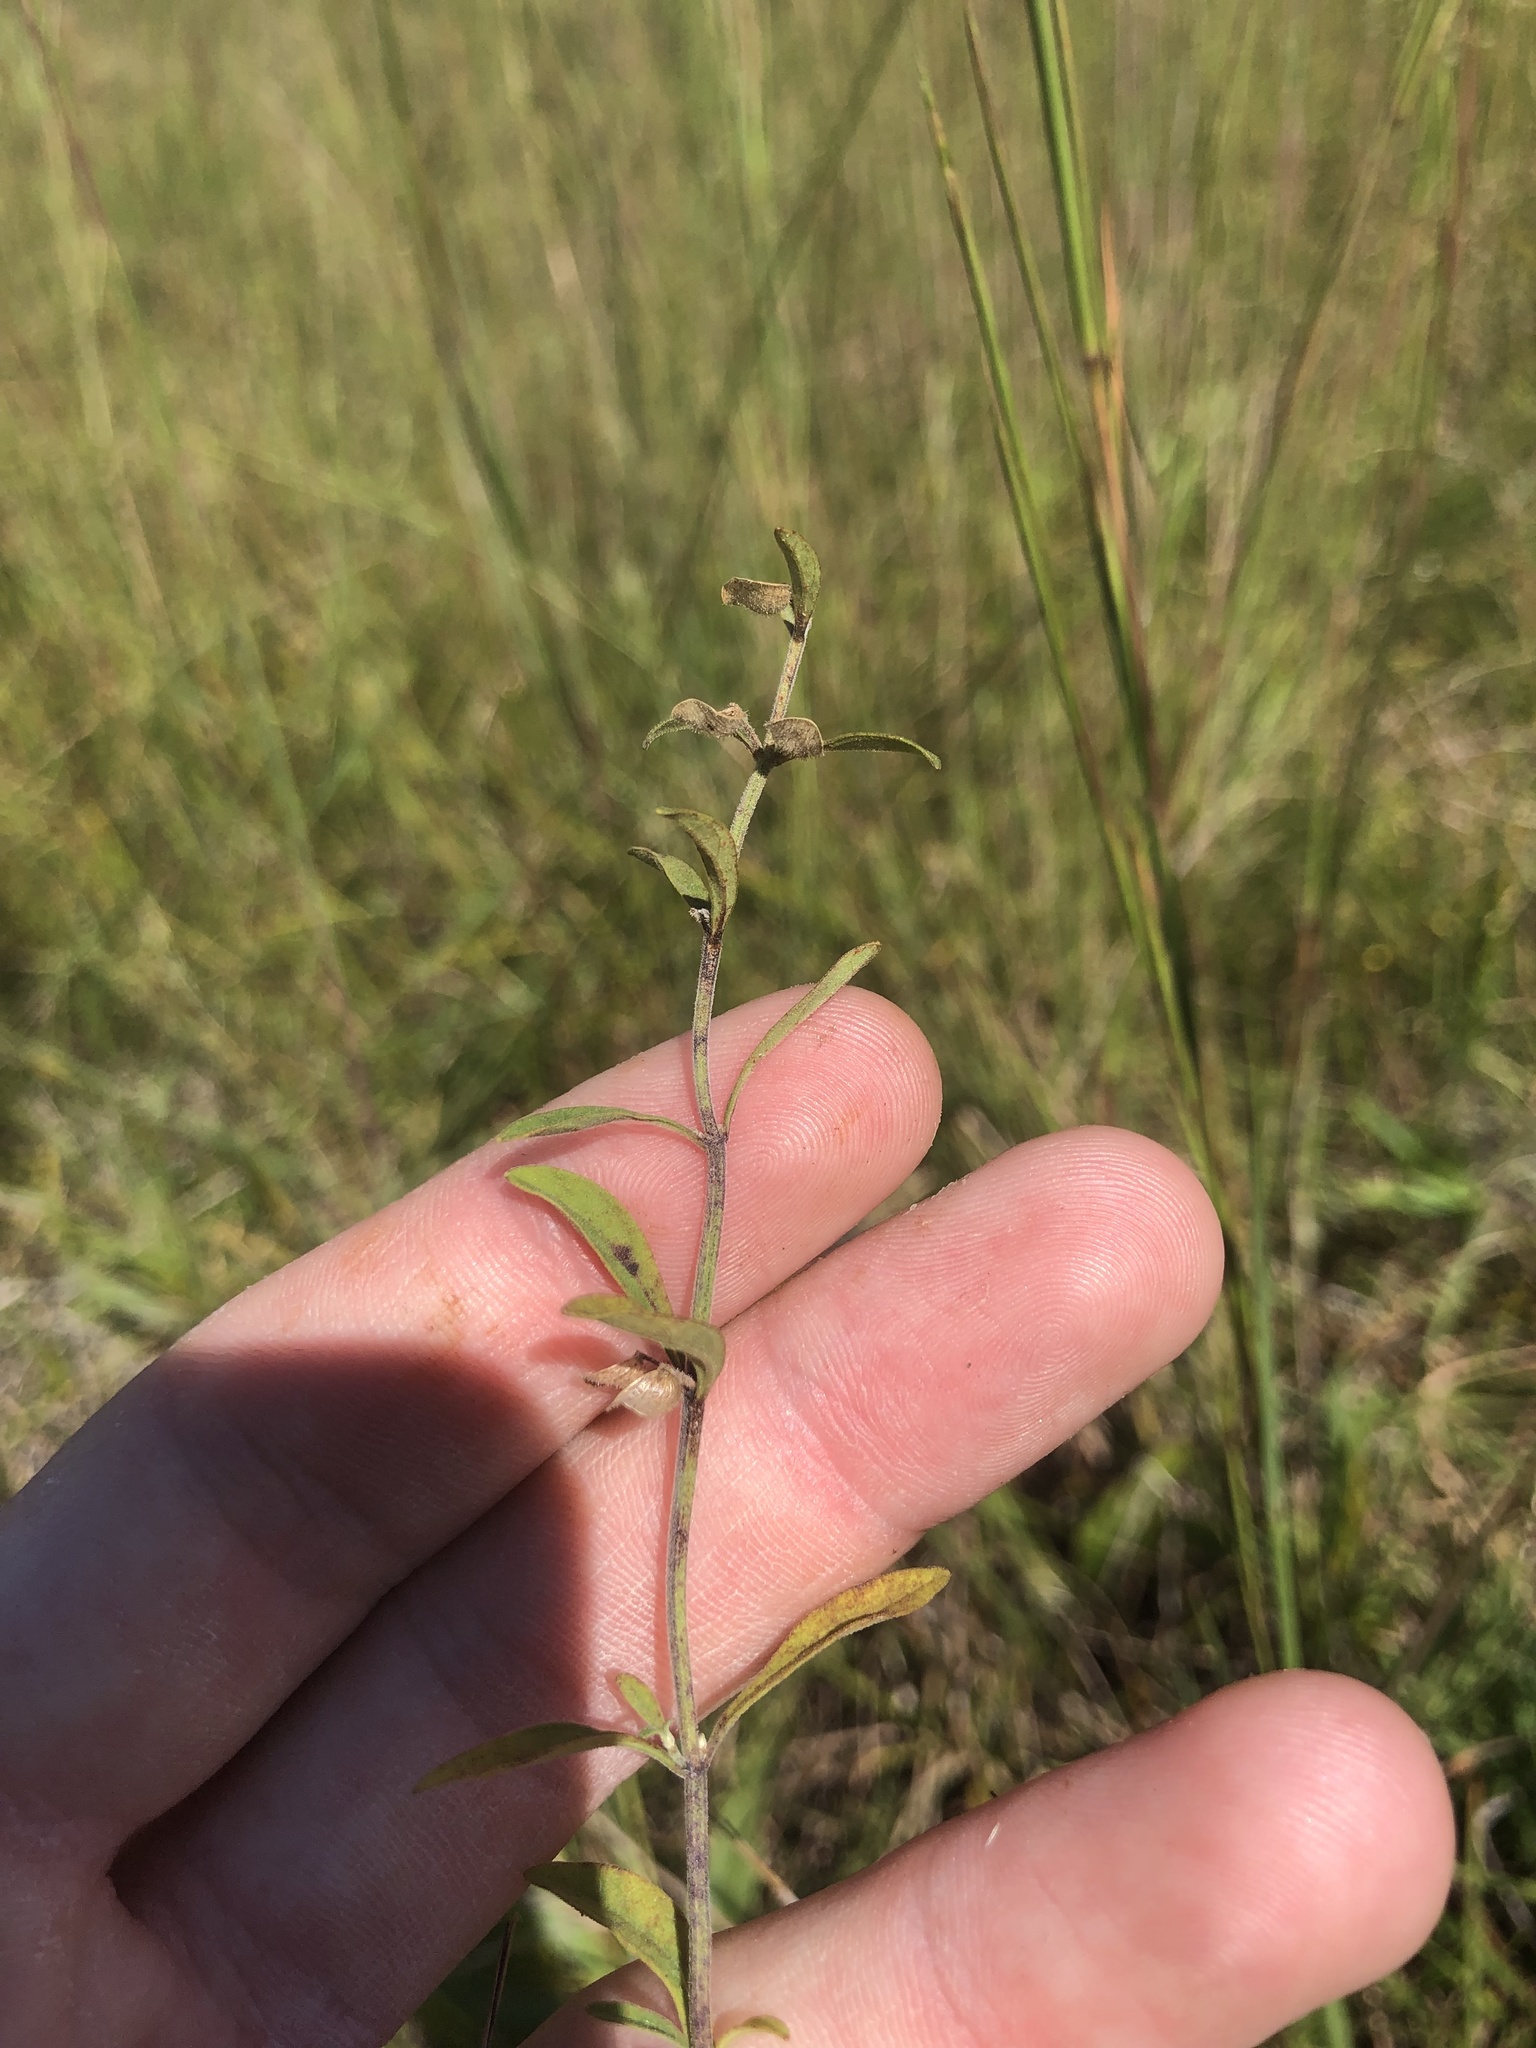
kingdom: Plantae
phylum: Tracheophyta
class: Magnoliopsida
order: Lamiales
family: Lamiaceae
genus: Scutellaria
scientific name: Scutellaria integrifolia
